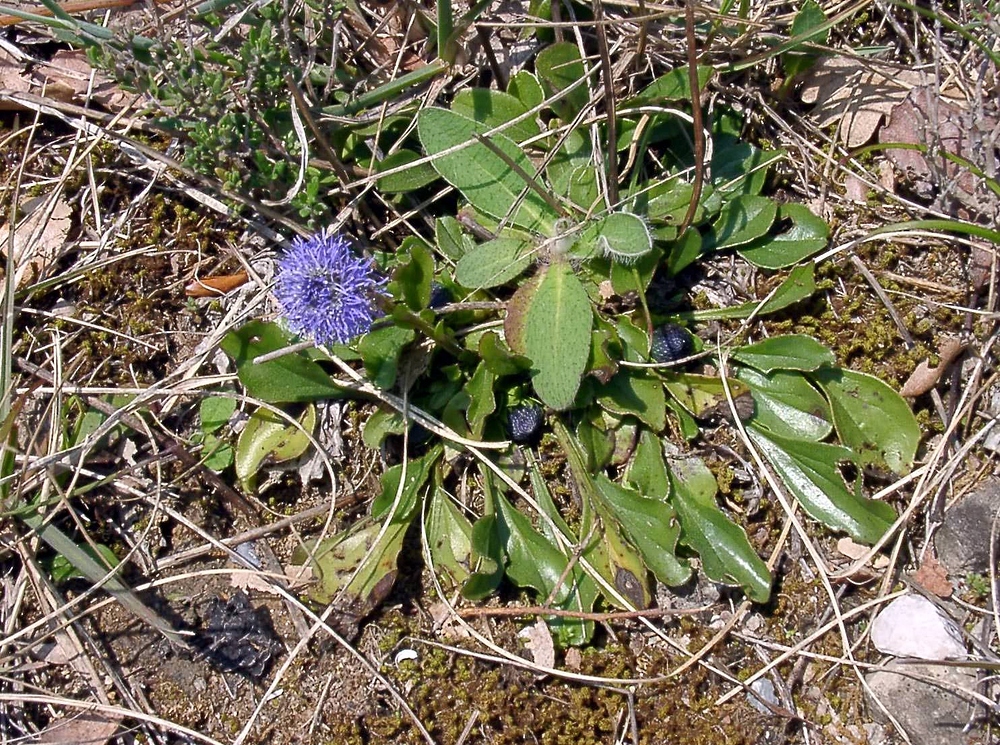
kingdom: Plantae
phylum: Tracheophyta
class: Magnoliopsida
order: Lamiales
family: Plantaginaceae
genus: Globularia
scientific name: Globularia bisnagarica
